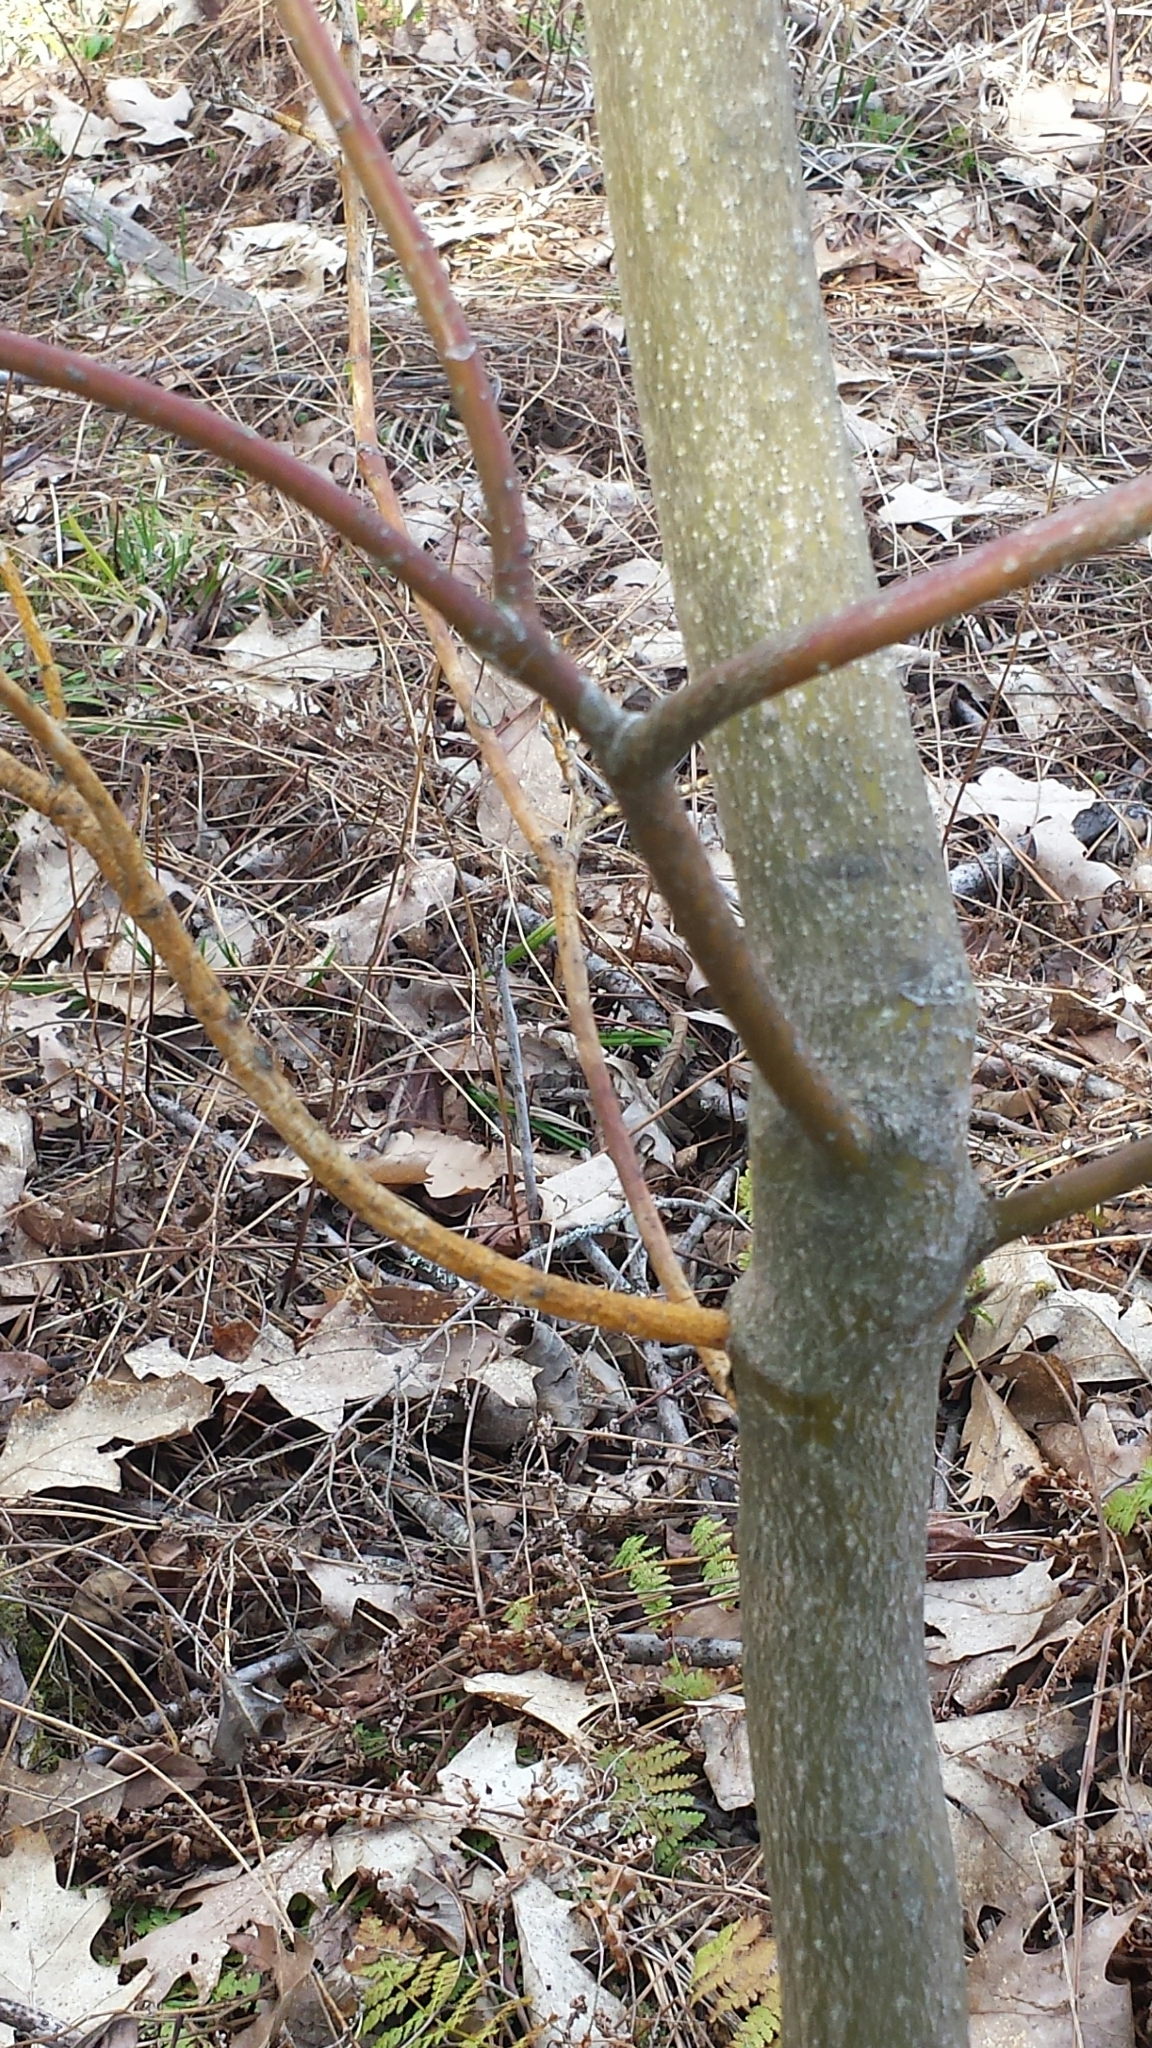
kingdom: Fungi
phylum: Ascomycota
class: Sordariomycetes
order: Diaporthales
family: Cryphonectriaceae
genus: Aurantioporthe
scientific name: Aurantioporthe corni
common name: Dogwood golden canker
